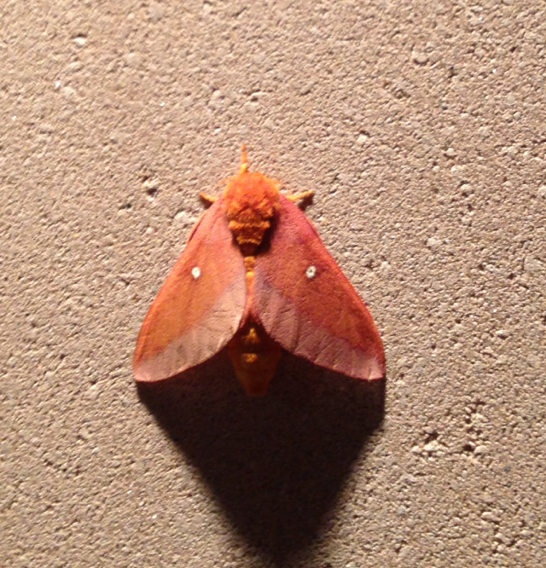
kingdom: Animalia
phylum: Arthropoda
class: Insecta
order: Lepidoptera
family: Saturniidae
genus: Anisota
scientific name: Anisota virginiensis
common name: Pink striped oakworm moth
